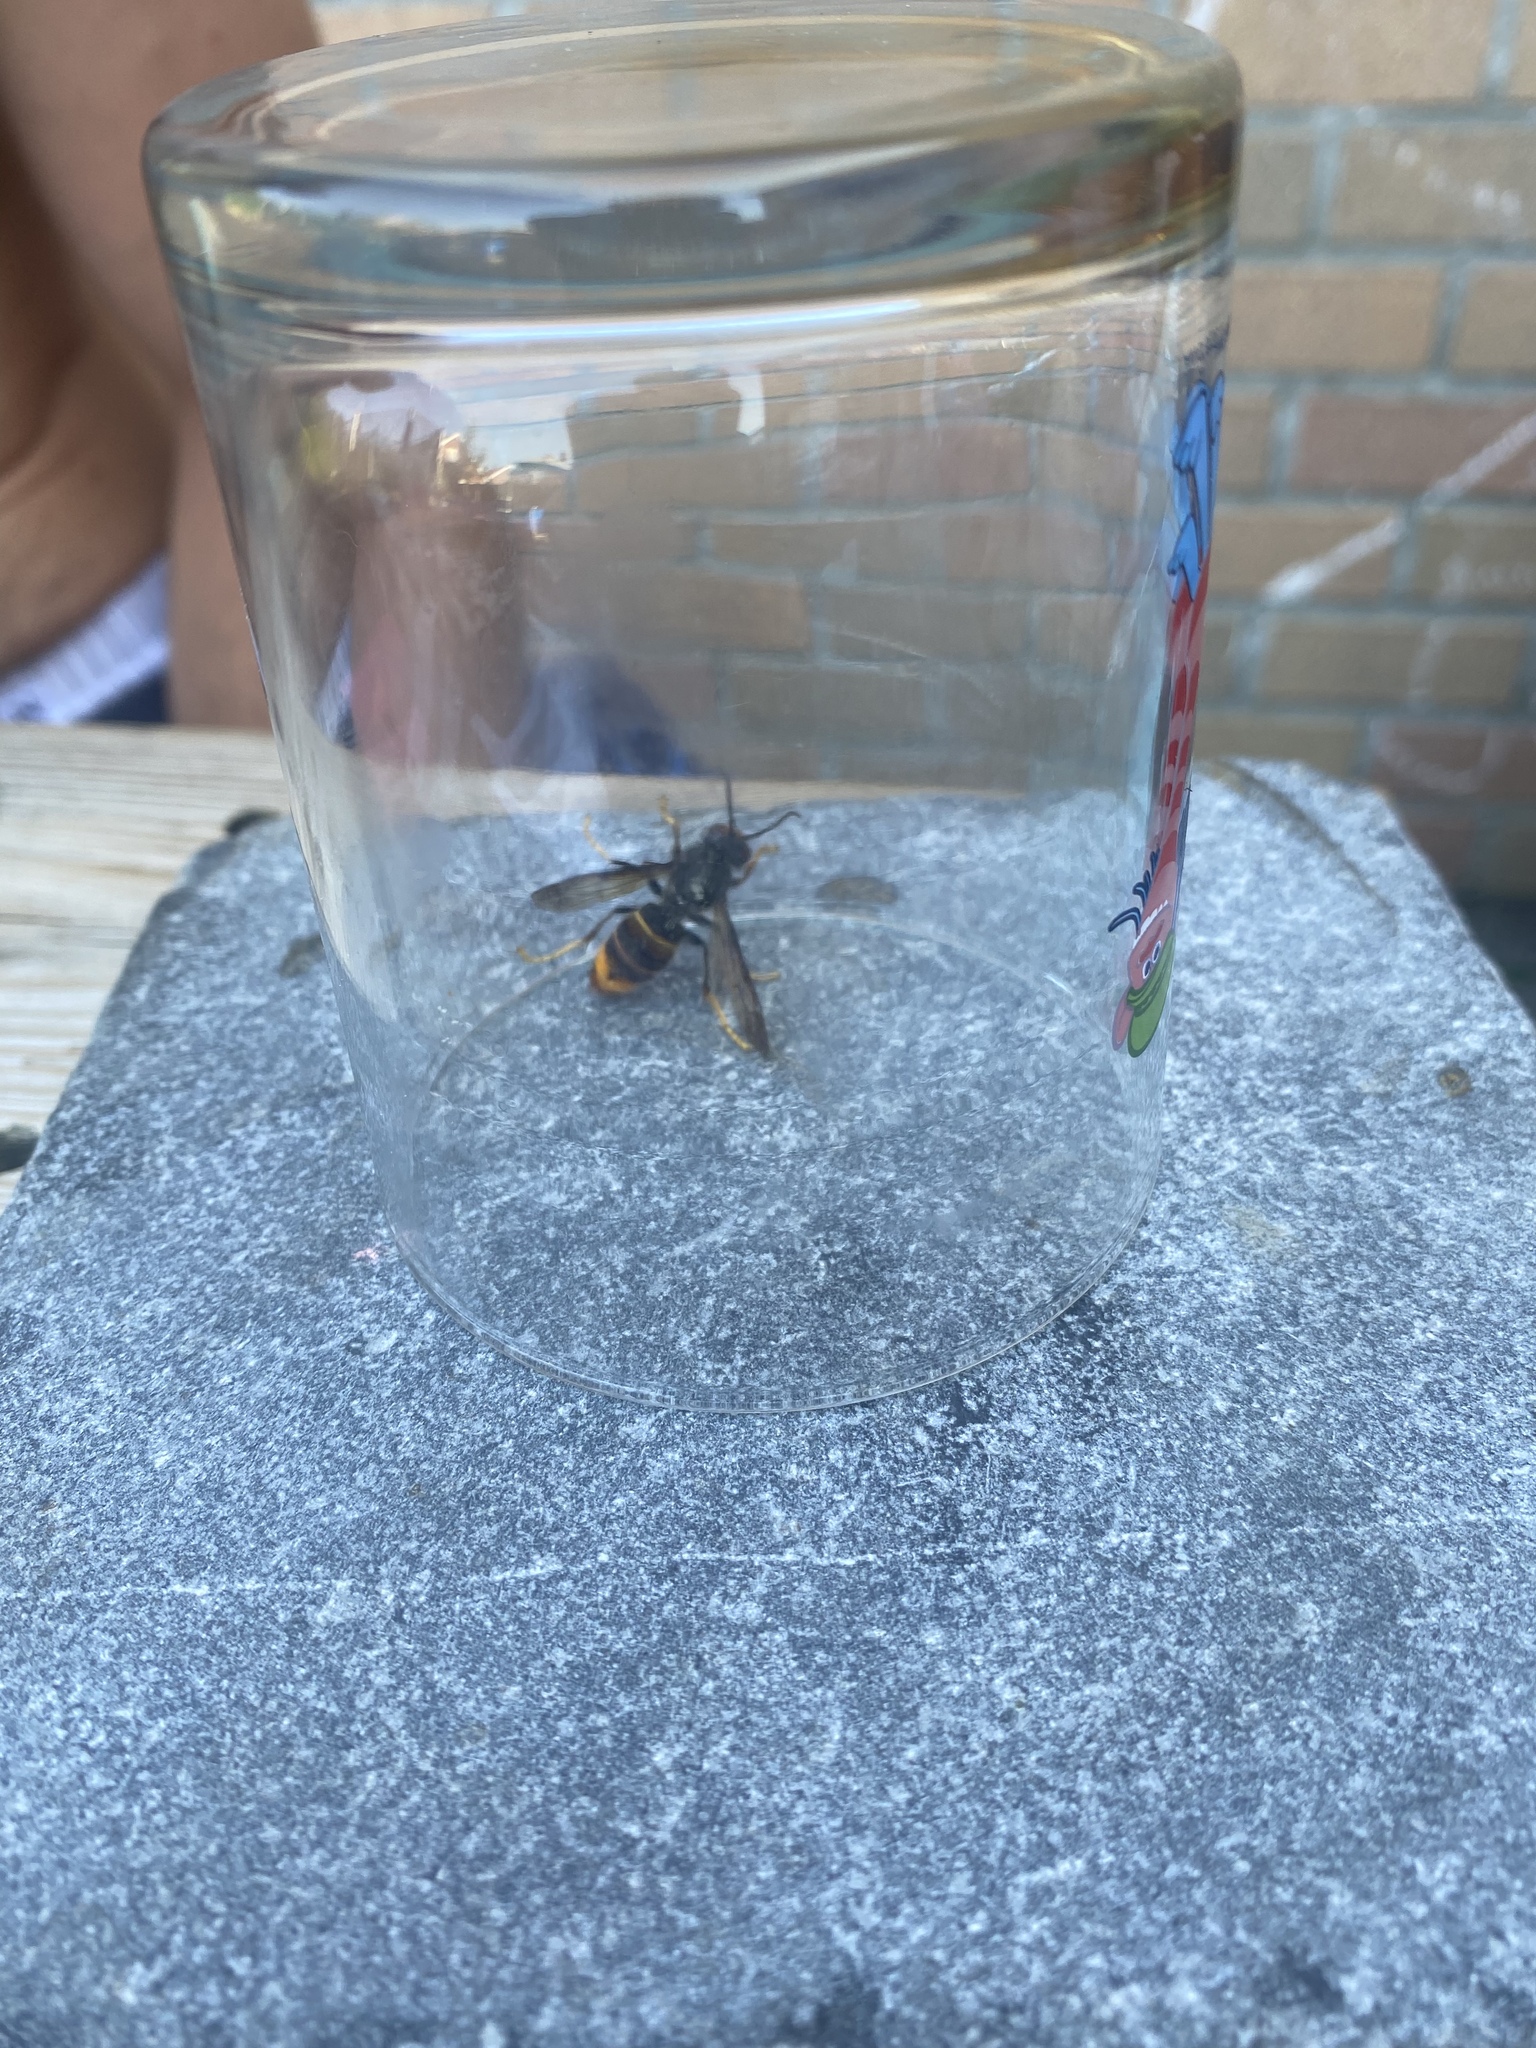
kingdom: Animalia
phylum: Arthropoda
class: Insecta
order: Hymenoptera
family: Vespidae
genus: Vespa
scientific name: Vespa velutina
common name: Asian hornet
